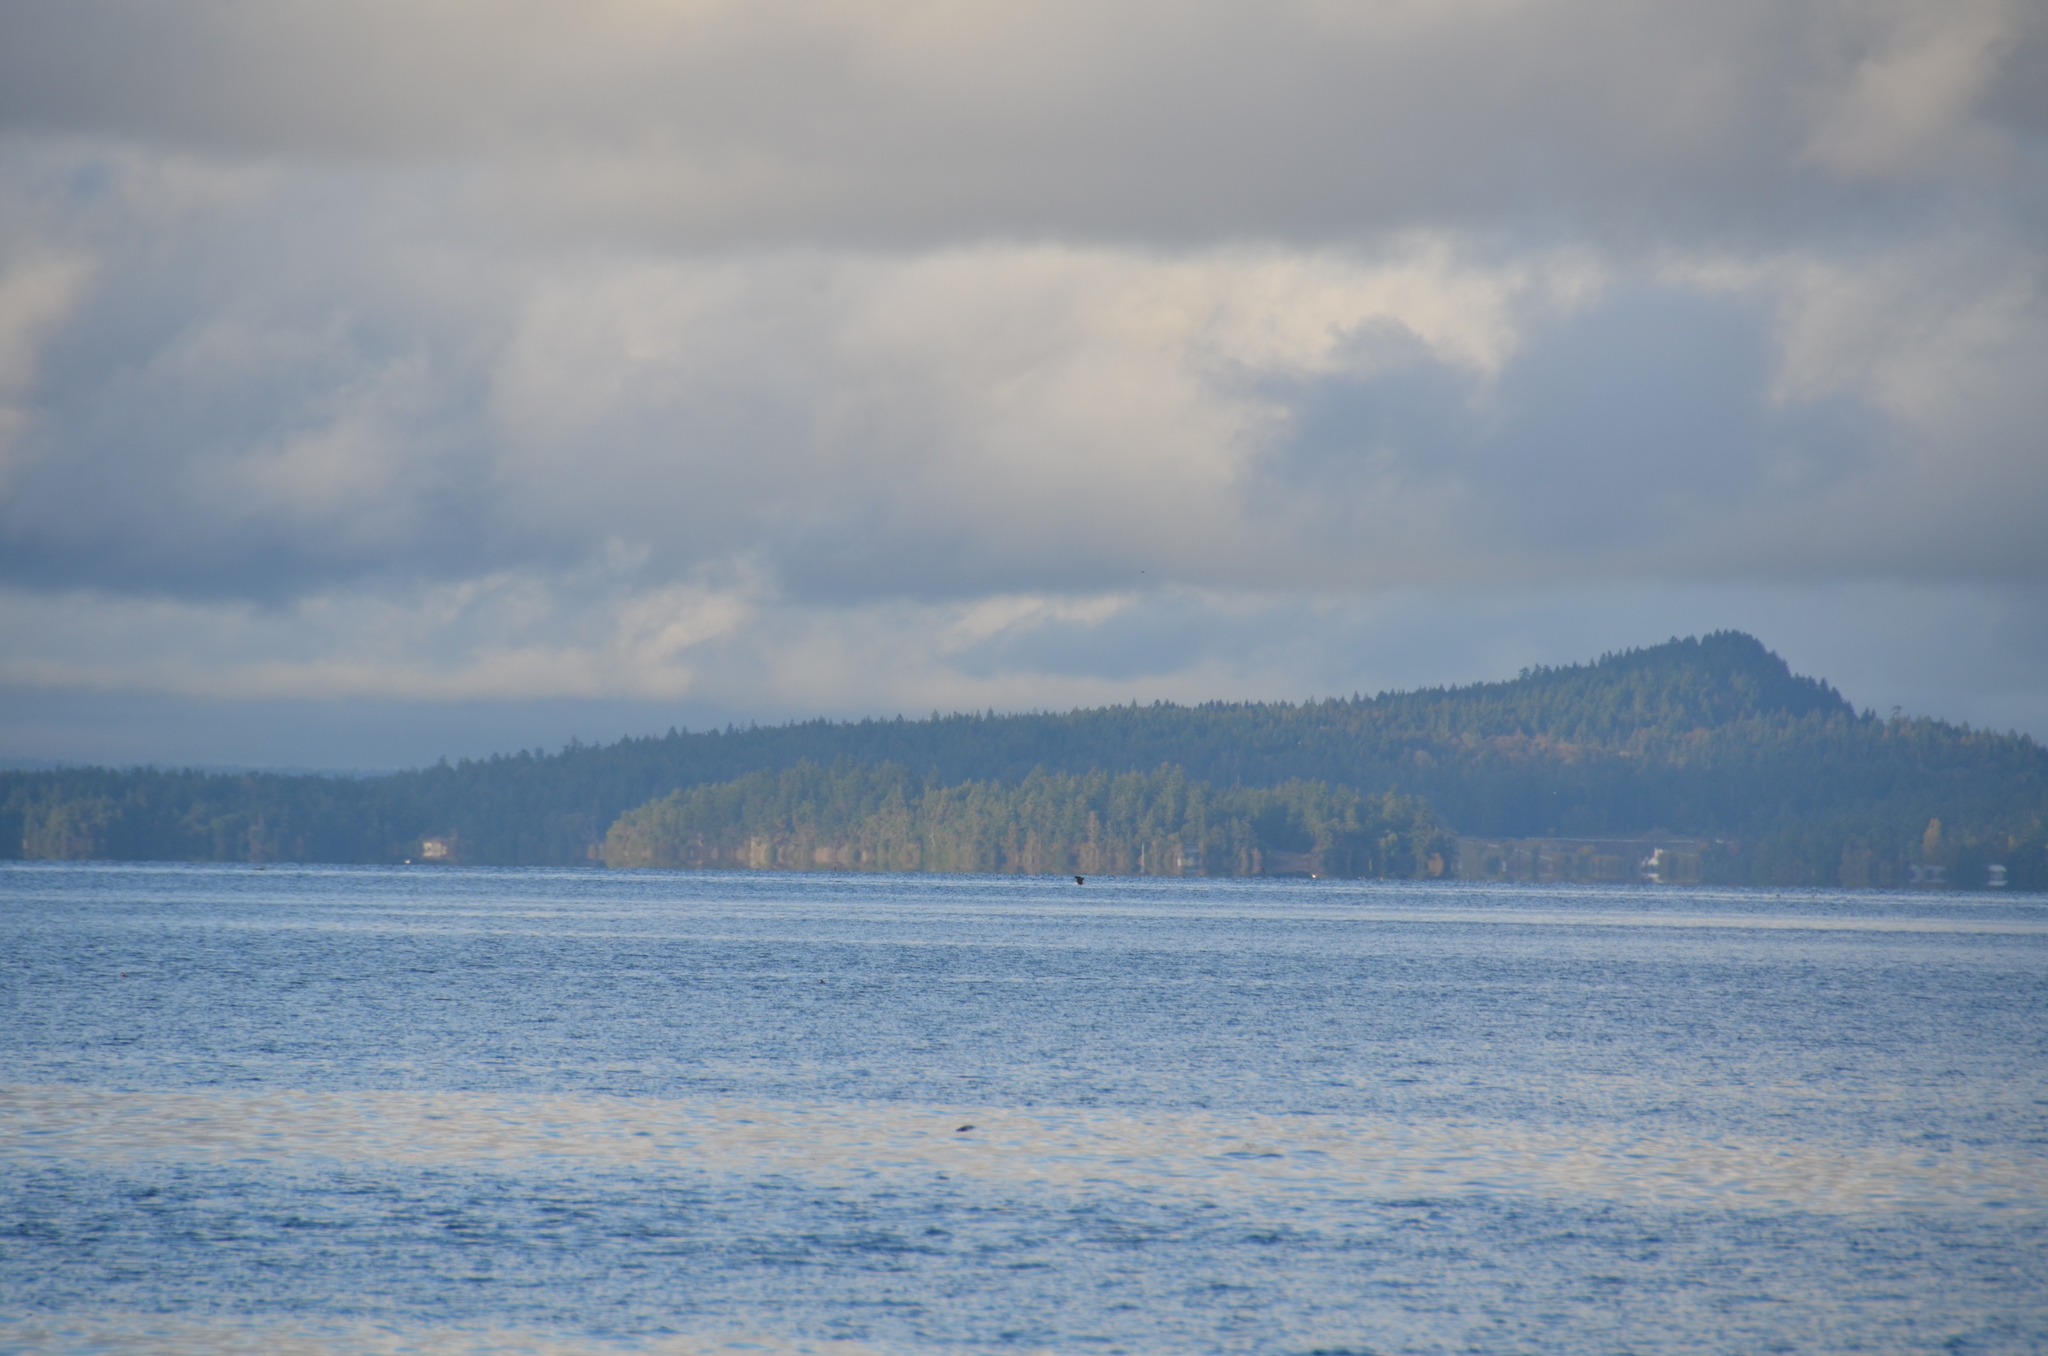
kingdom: Animalia
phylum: Chordata
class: Aves
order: Accipitriformes
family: Accipitridae
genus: Haliaeetus
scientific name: Haliaeetus leucocephalus
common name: Bald eagle
